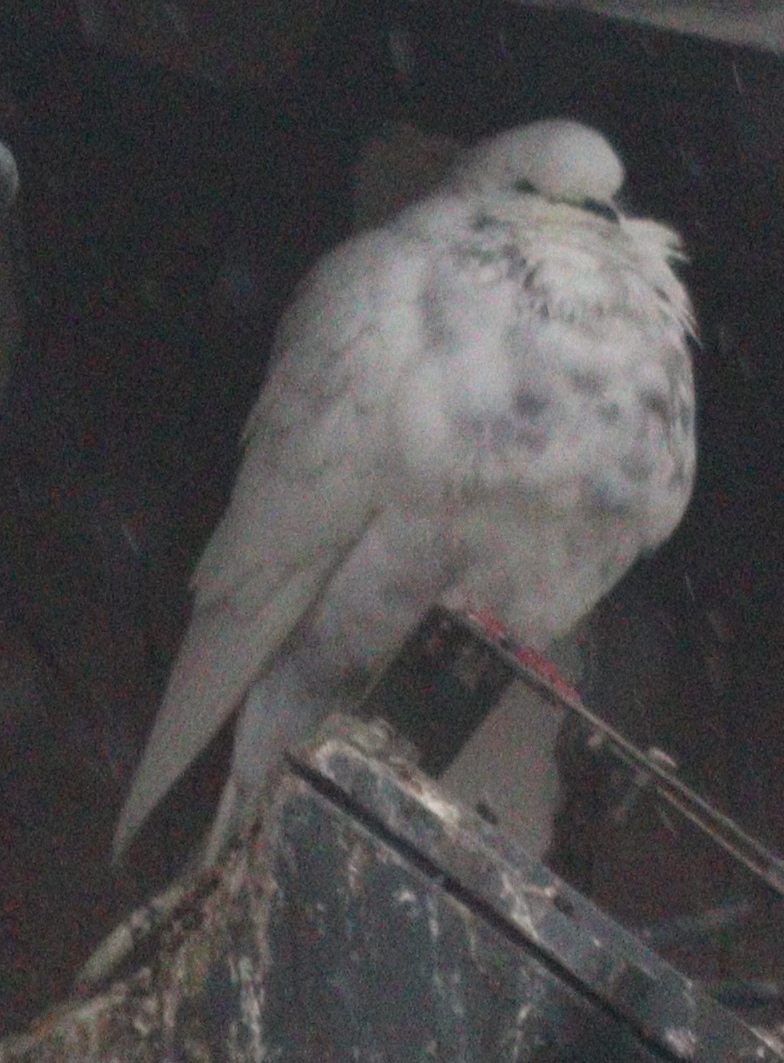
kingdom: Animalia
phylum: Chordata
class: Aves
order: Columbiformes
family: Columbidae
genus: Columba
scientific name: Columba livia
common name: Rock pigeon
